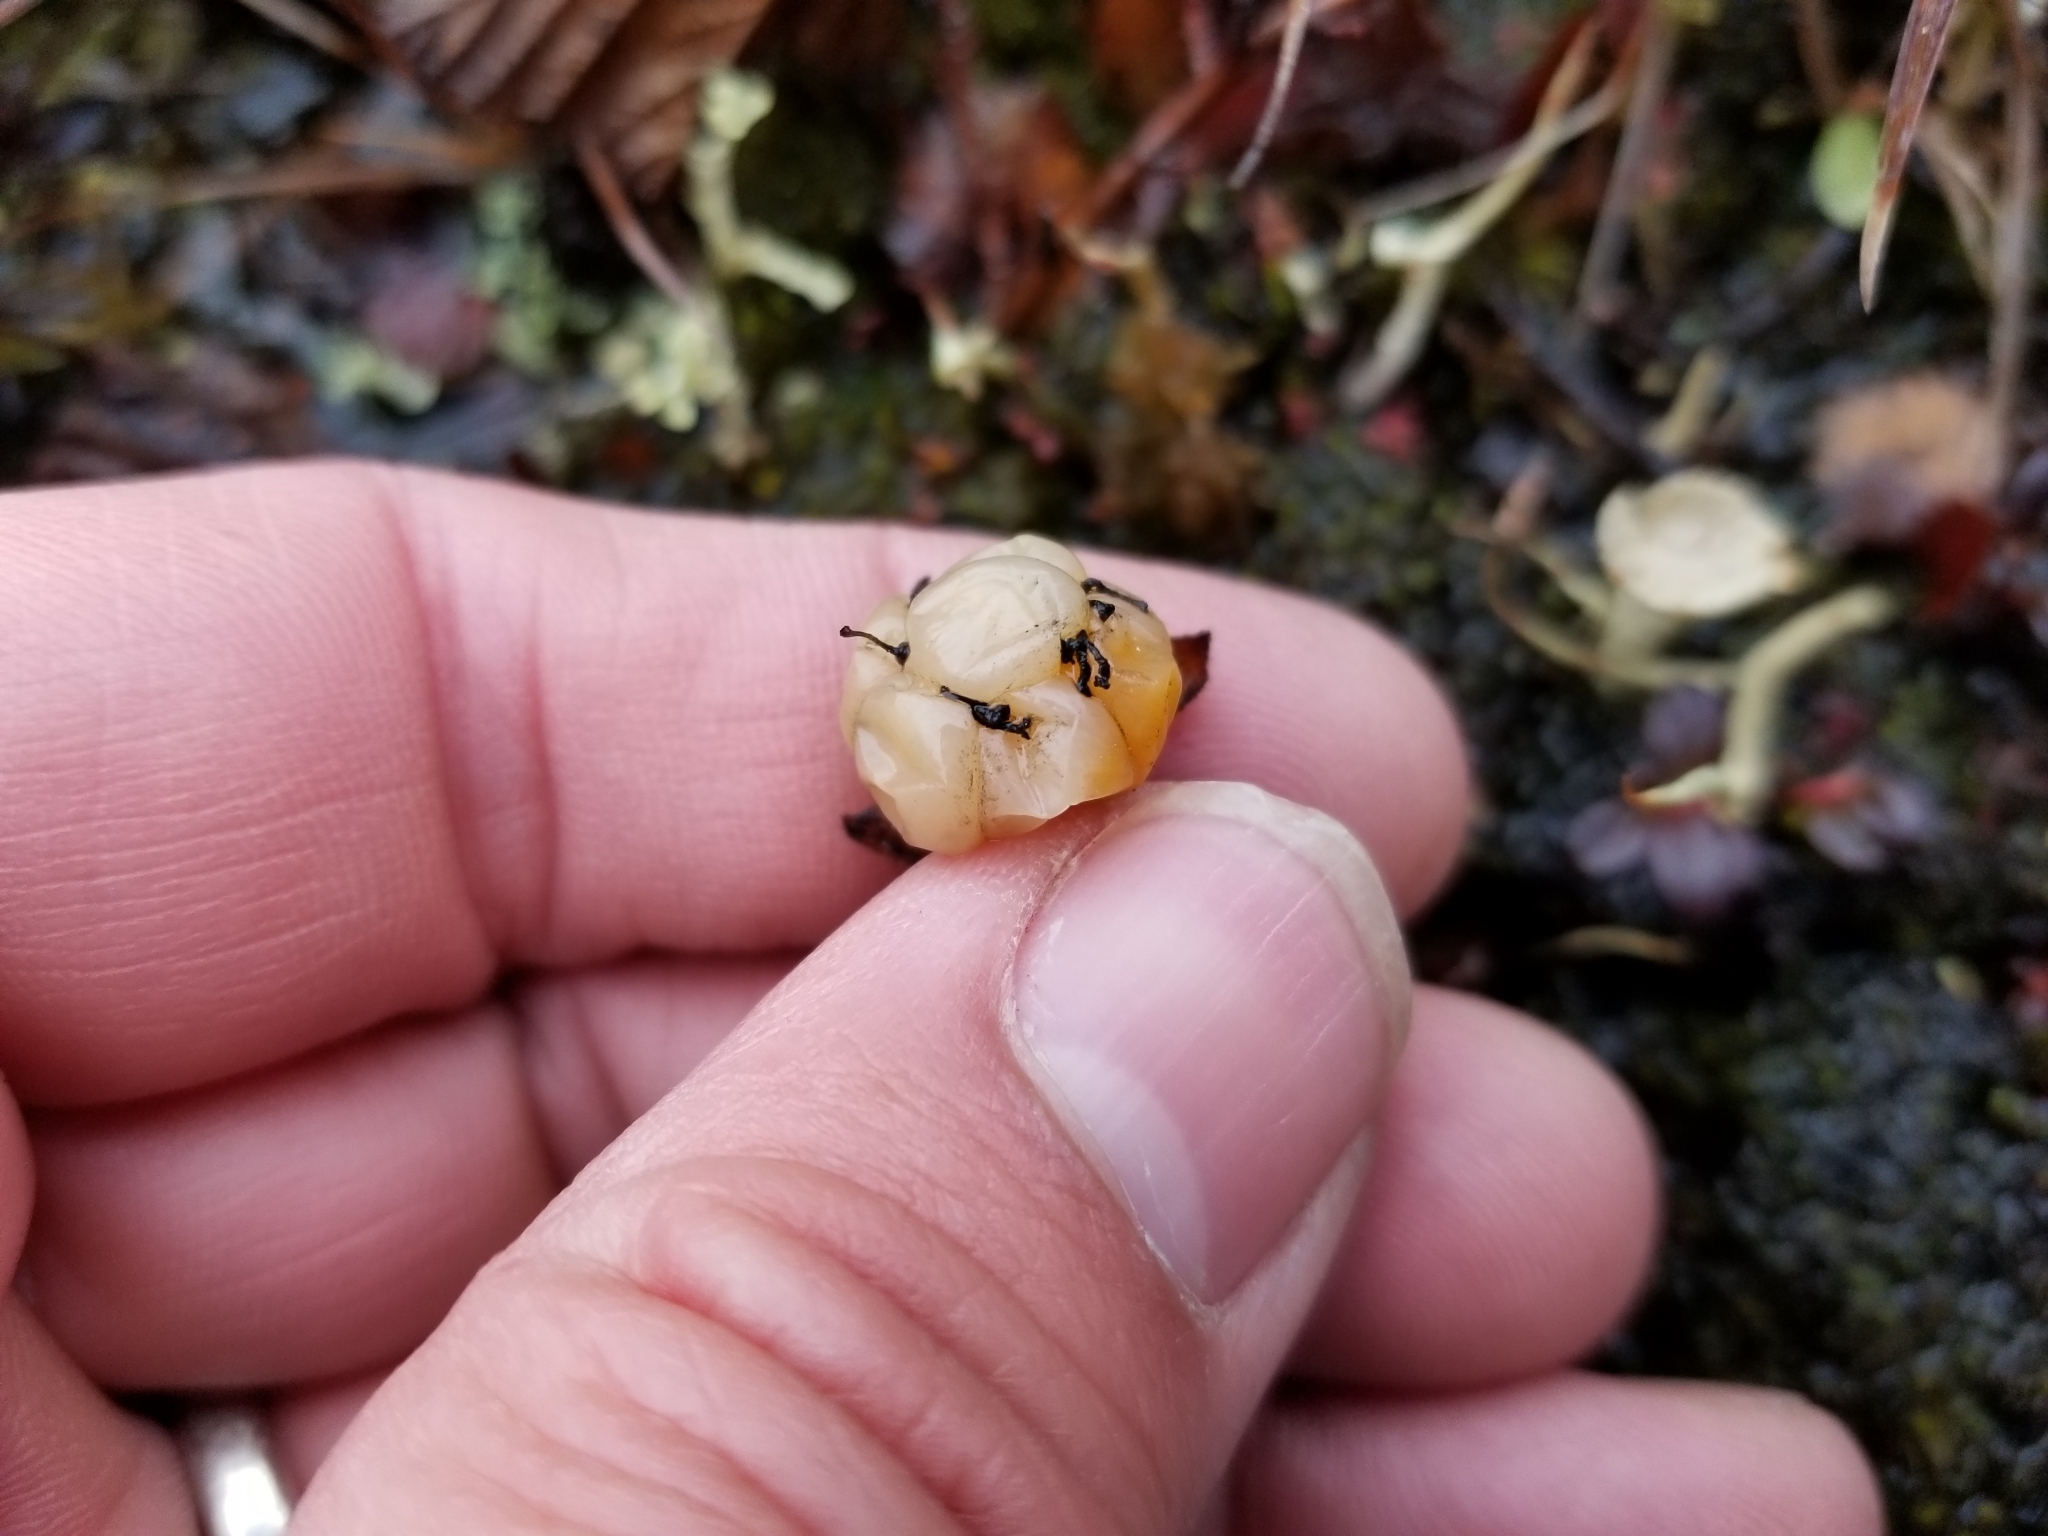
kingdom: Plantae
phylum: Tracheophyta
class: Magnoliopsida
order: Rosales
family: Rosaceae
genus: Rubus
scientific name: Rubus chamaemorus
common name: Cloudberry
